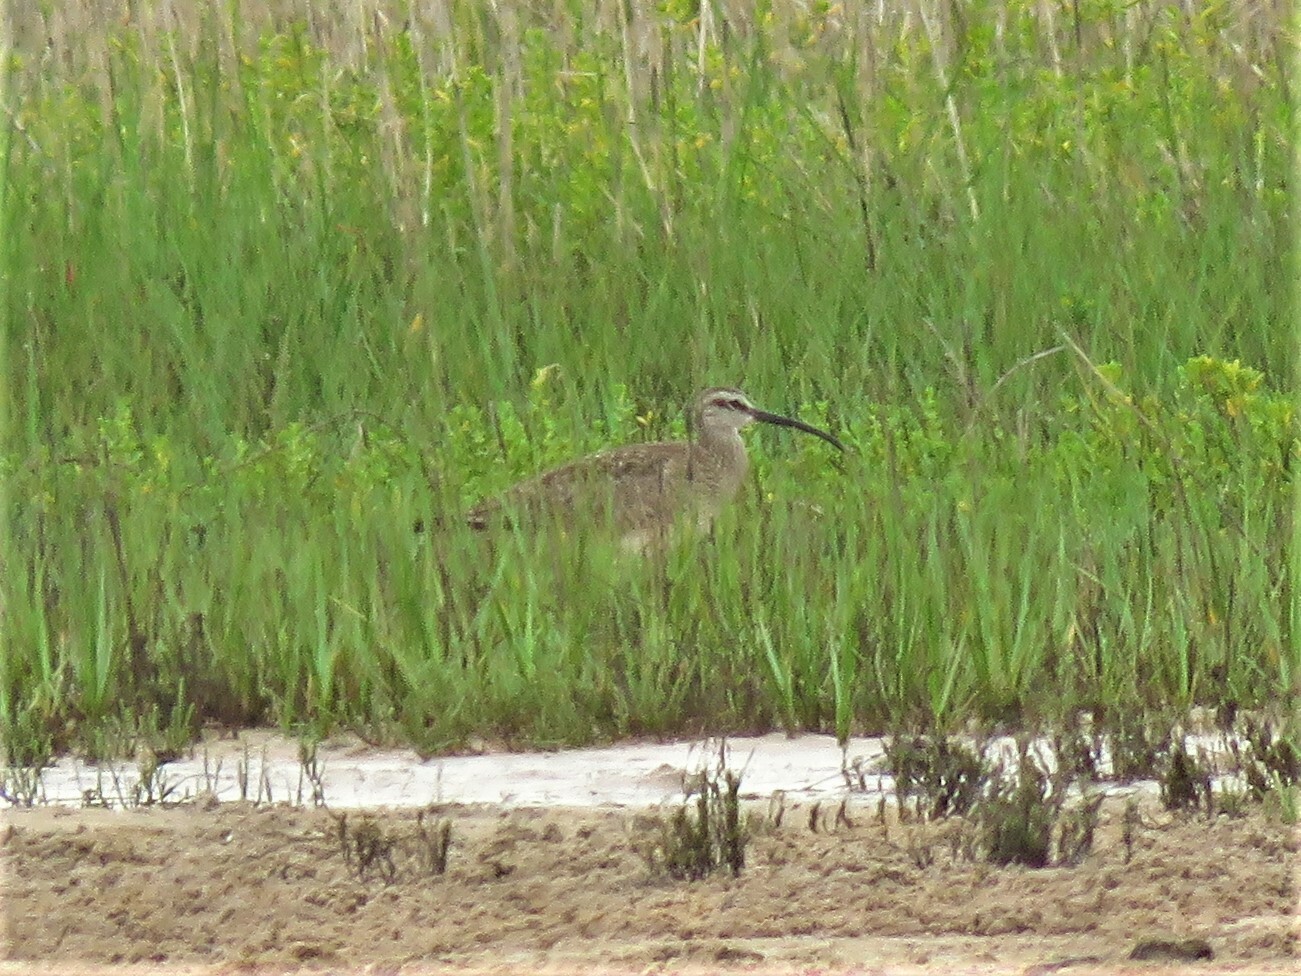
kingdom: Animalia
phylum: Chordata
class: Aves
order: Charadriiformes
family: Scolopacidae
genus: Numenius
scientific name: Numenius phaeopus
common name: Whimbrel
